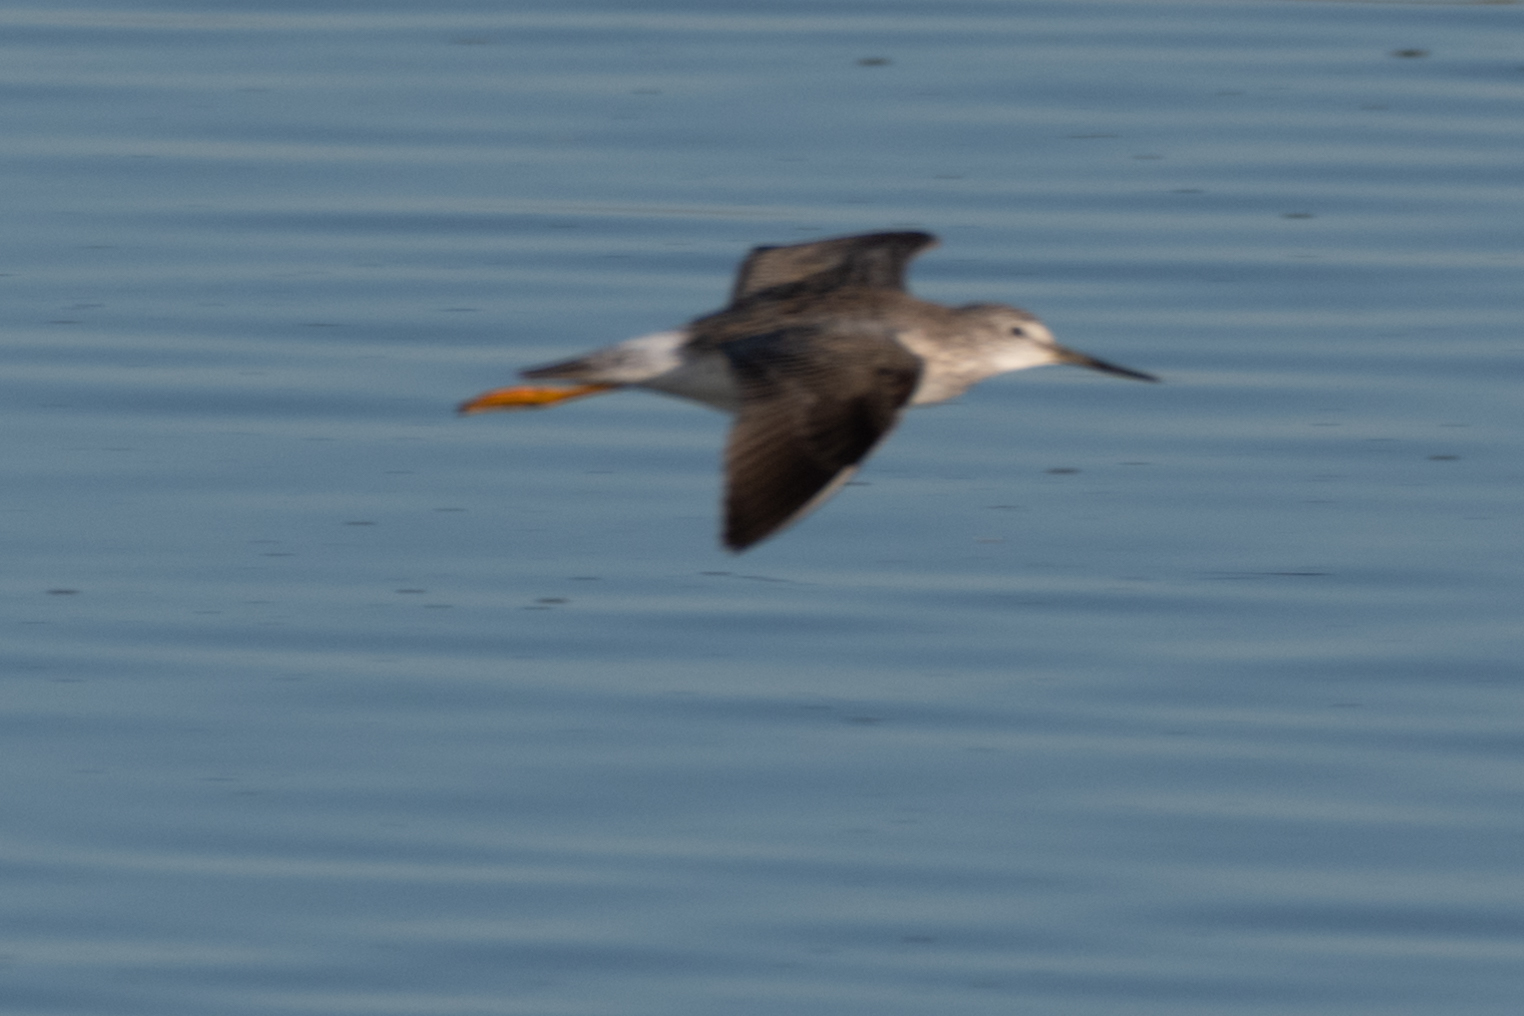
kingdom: Animalia
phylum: Chordata
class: Aves
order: Charadriiformes
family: Scolopacidae
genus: Tringa
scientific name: Tringa melanoleuca
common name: Greater yellowlegs
